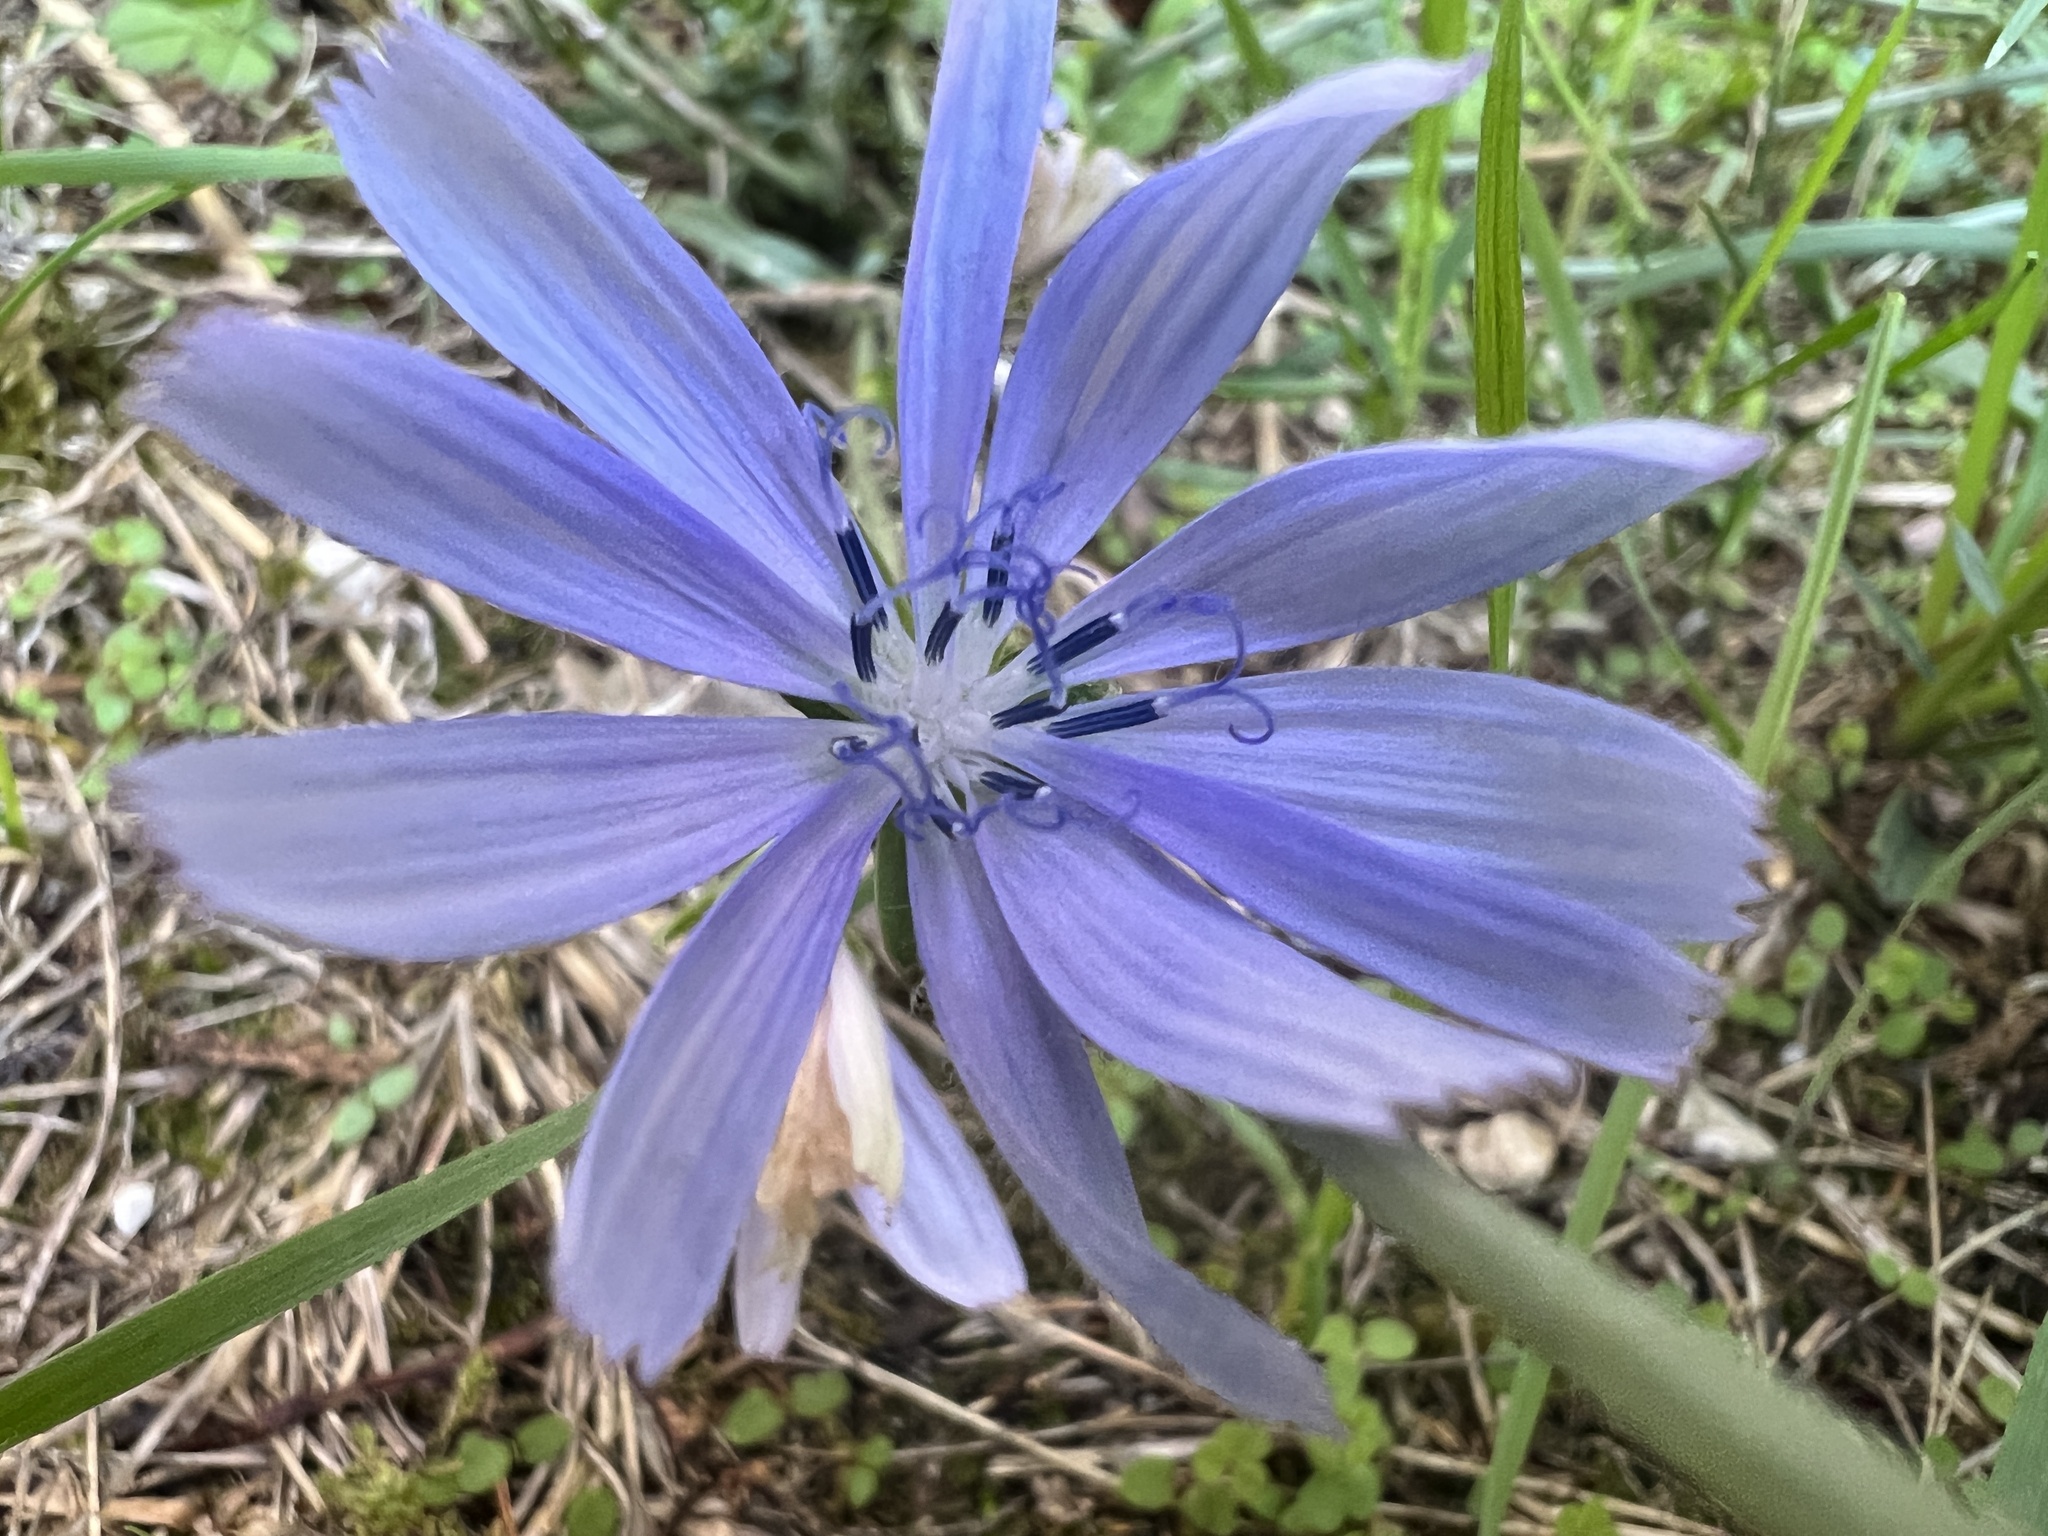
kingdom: Plantae
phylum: Tracheophyta
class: Magnoliopsida
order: Asterales
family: Asteraceae
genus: Cichorium
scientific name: Cichorium intybus
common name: Chicory
